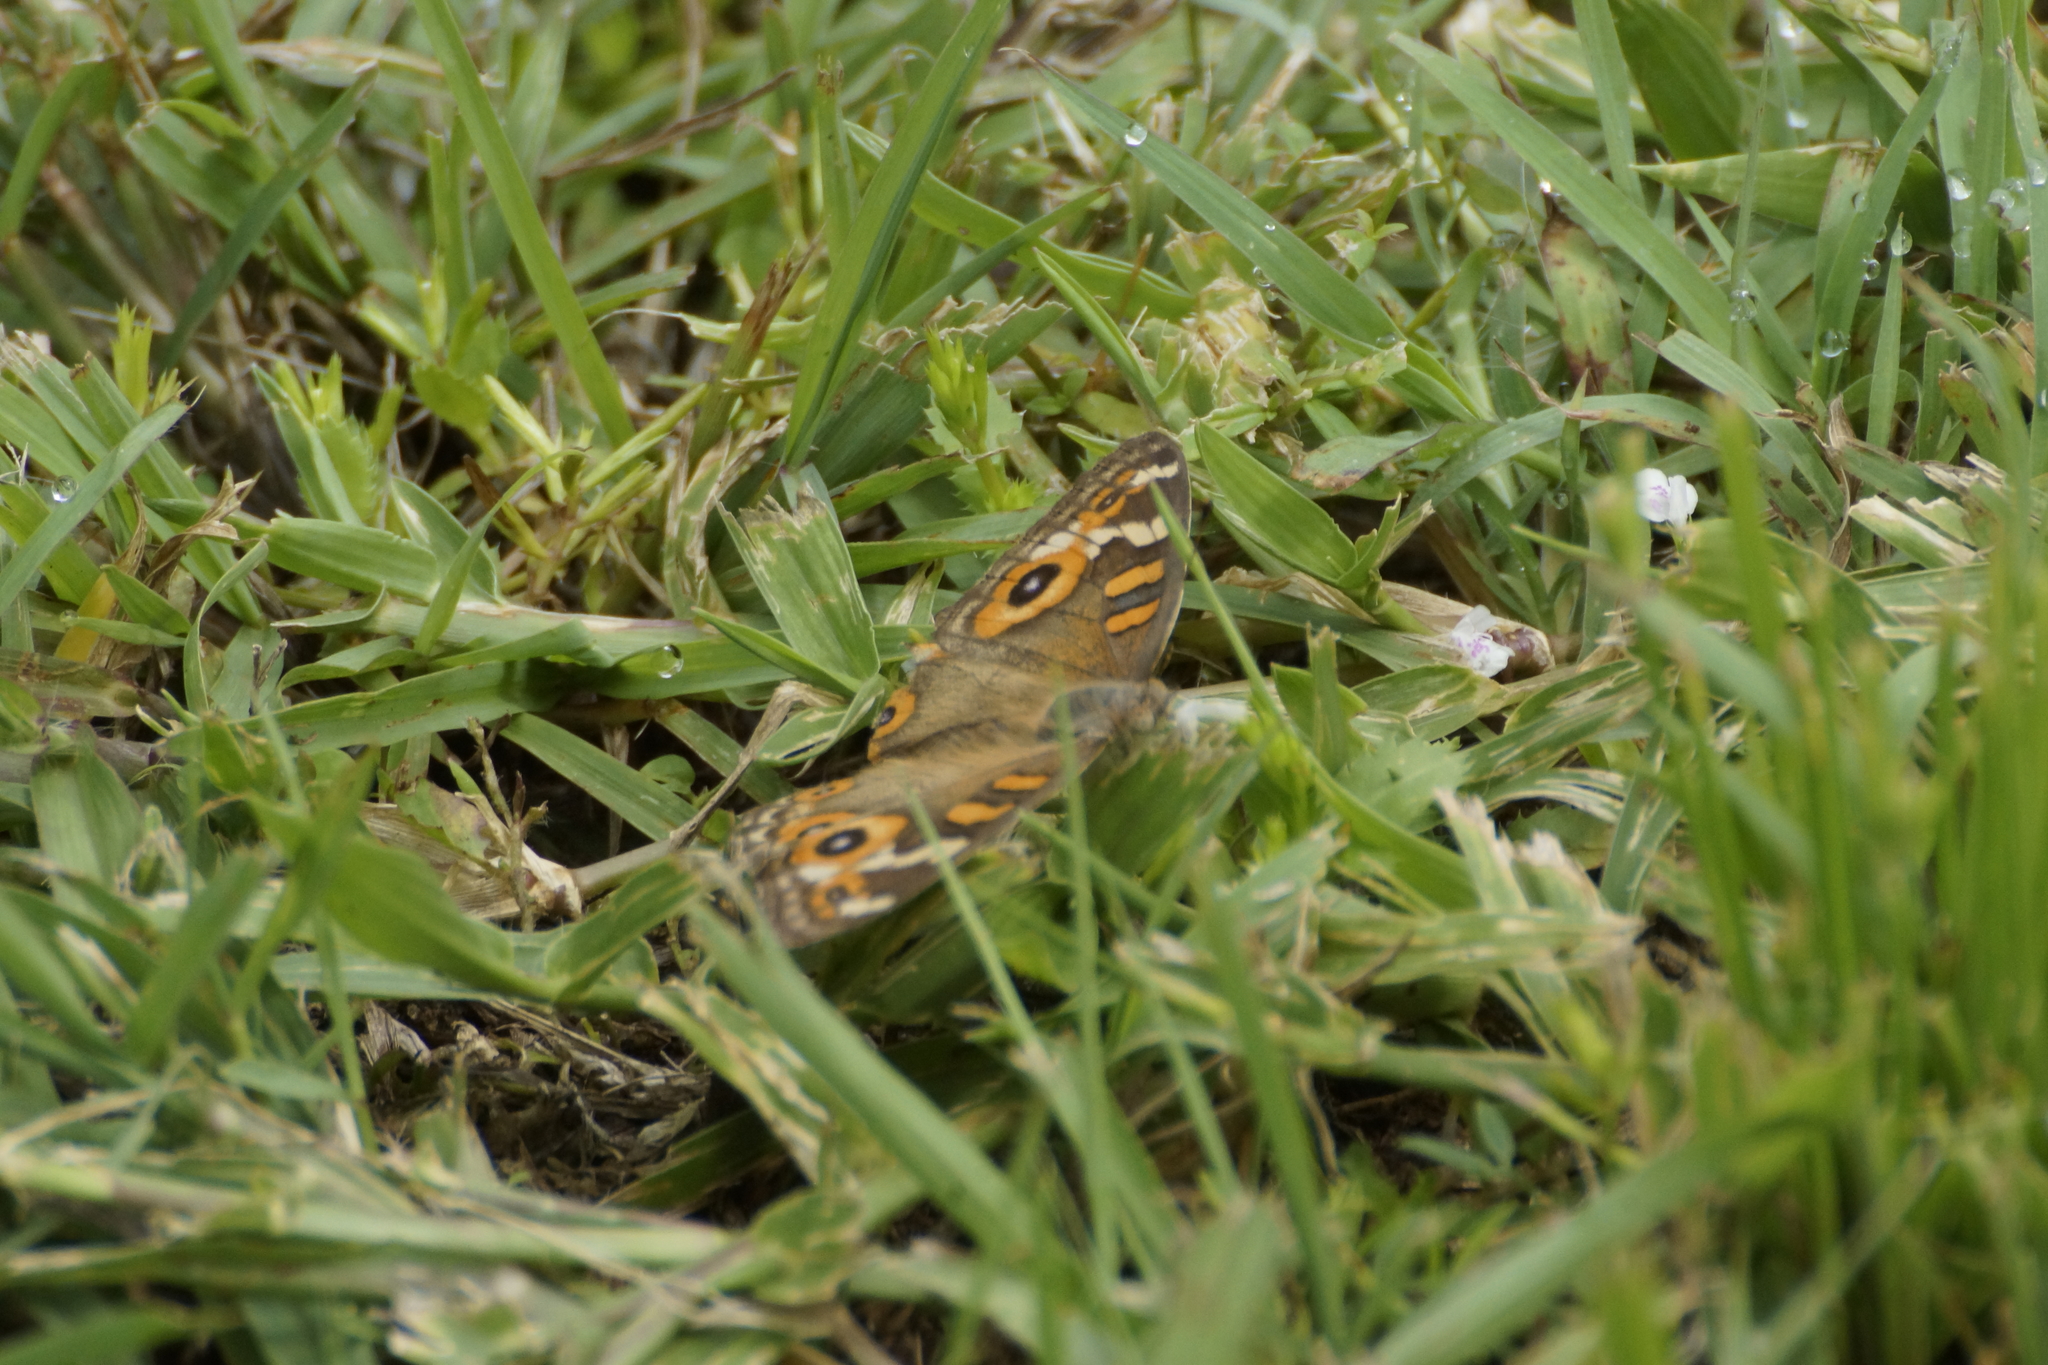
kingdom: Animalia
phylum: Arthropoda
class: Insecta
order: Lepidoptera
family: Nymphalidae
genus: Junonia
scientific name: Junonia villida
